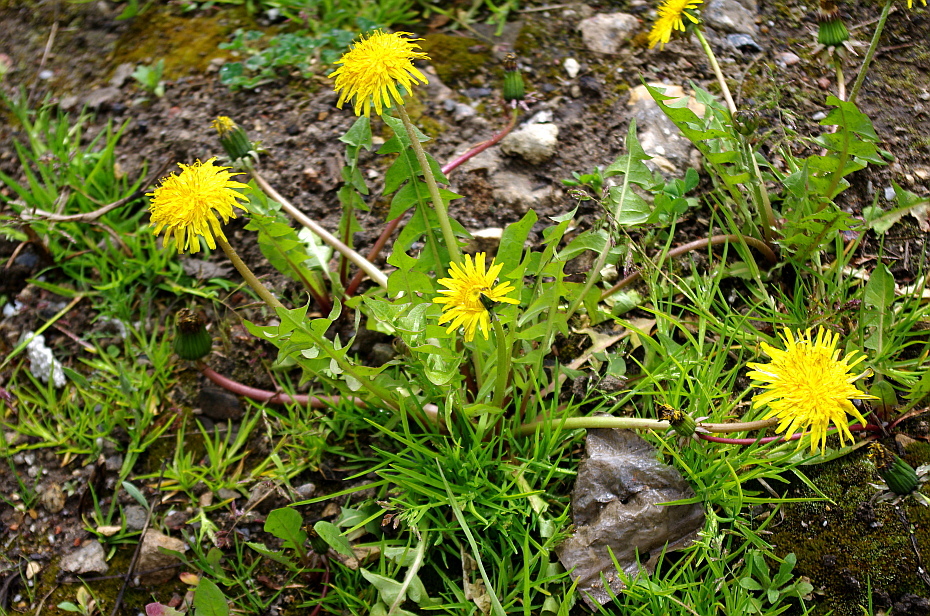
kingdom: Plantae
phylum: Tracheophyta
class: Magnoliopsida
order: Asterales
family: Asteraceae
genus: Taraxacum
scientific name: Taraxacum officinale
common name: Common dandelion
